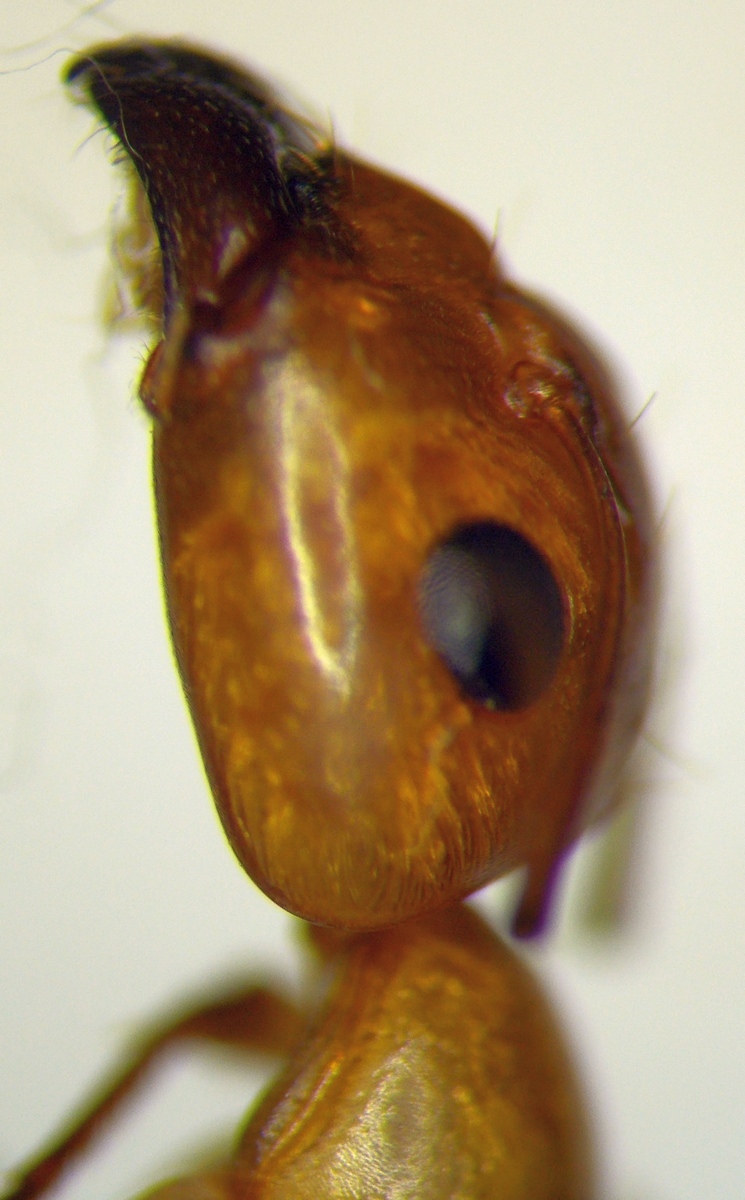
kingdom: Animalia
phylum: Arthropoda
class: Insecta
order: Hymenoptera
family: Formicidae
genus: Camponotus
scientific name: Camponotus turkestanus
